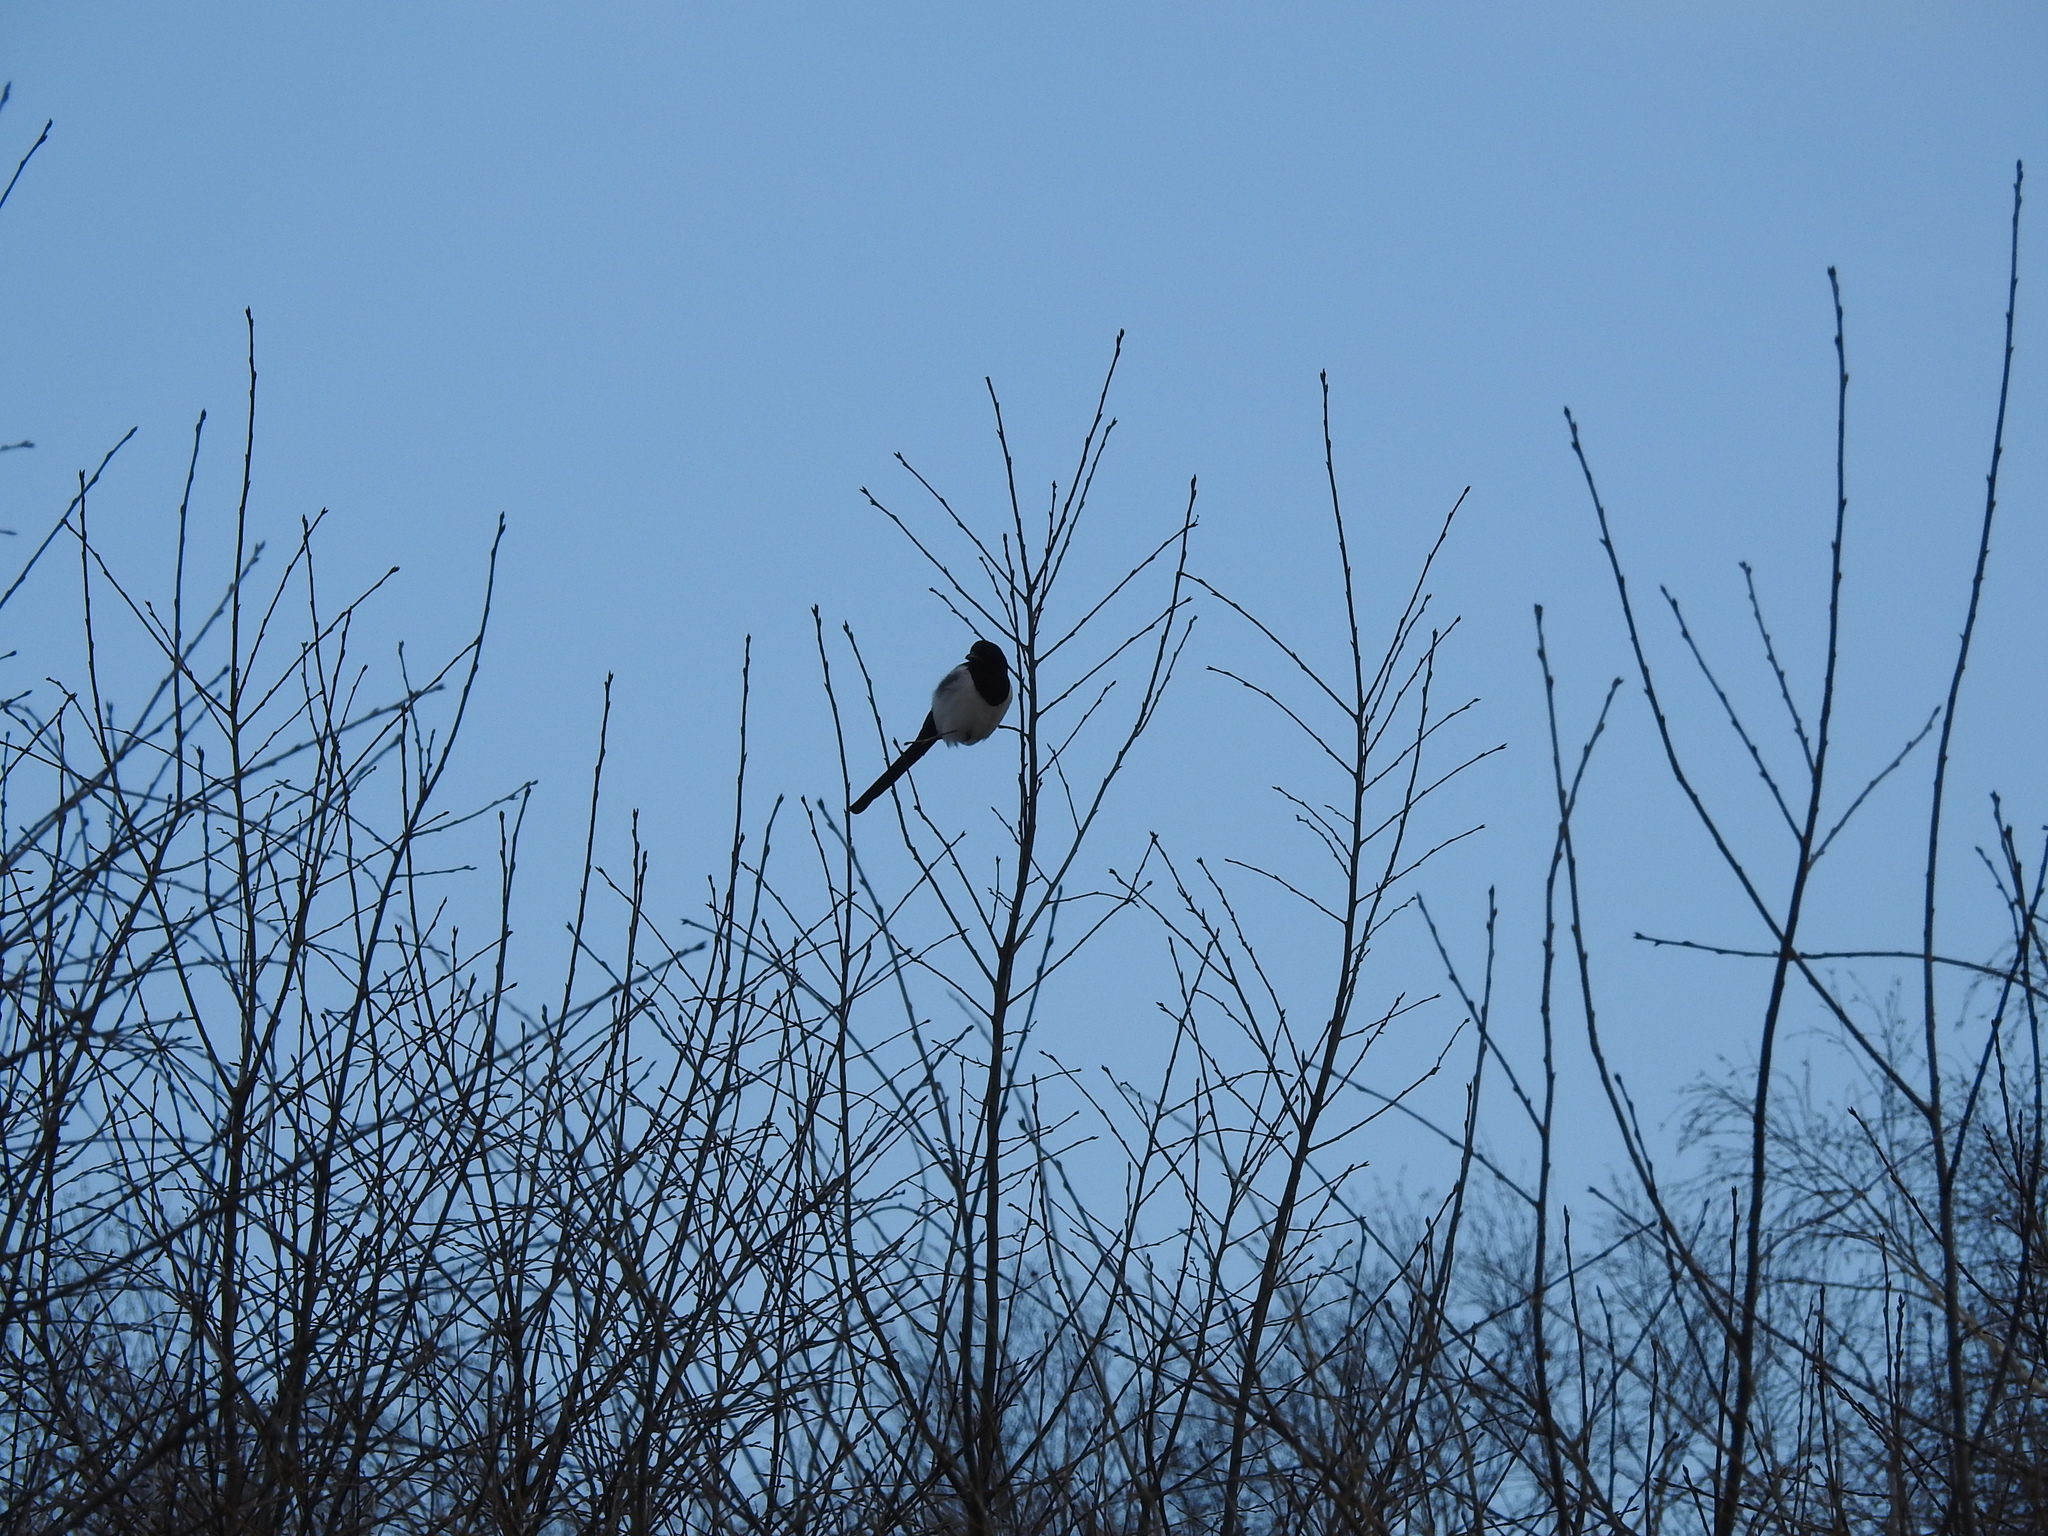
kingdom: Animalia
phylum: Chordata
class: Aves
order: Passeriformes
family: Corvidae
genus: Pica
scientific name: Pica pica
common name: Eurasian magpie
